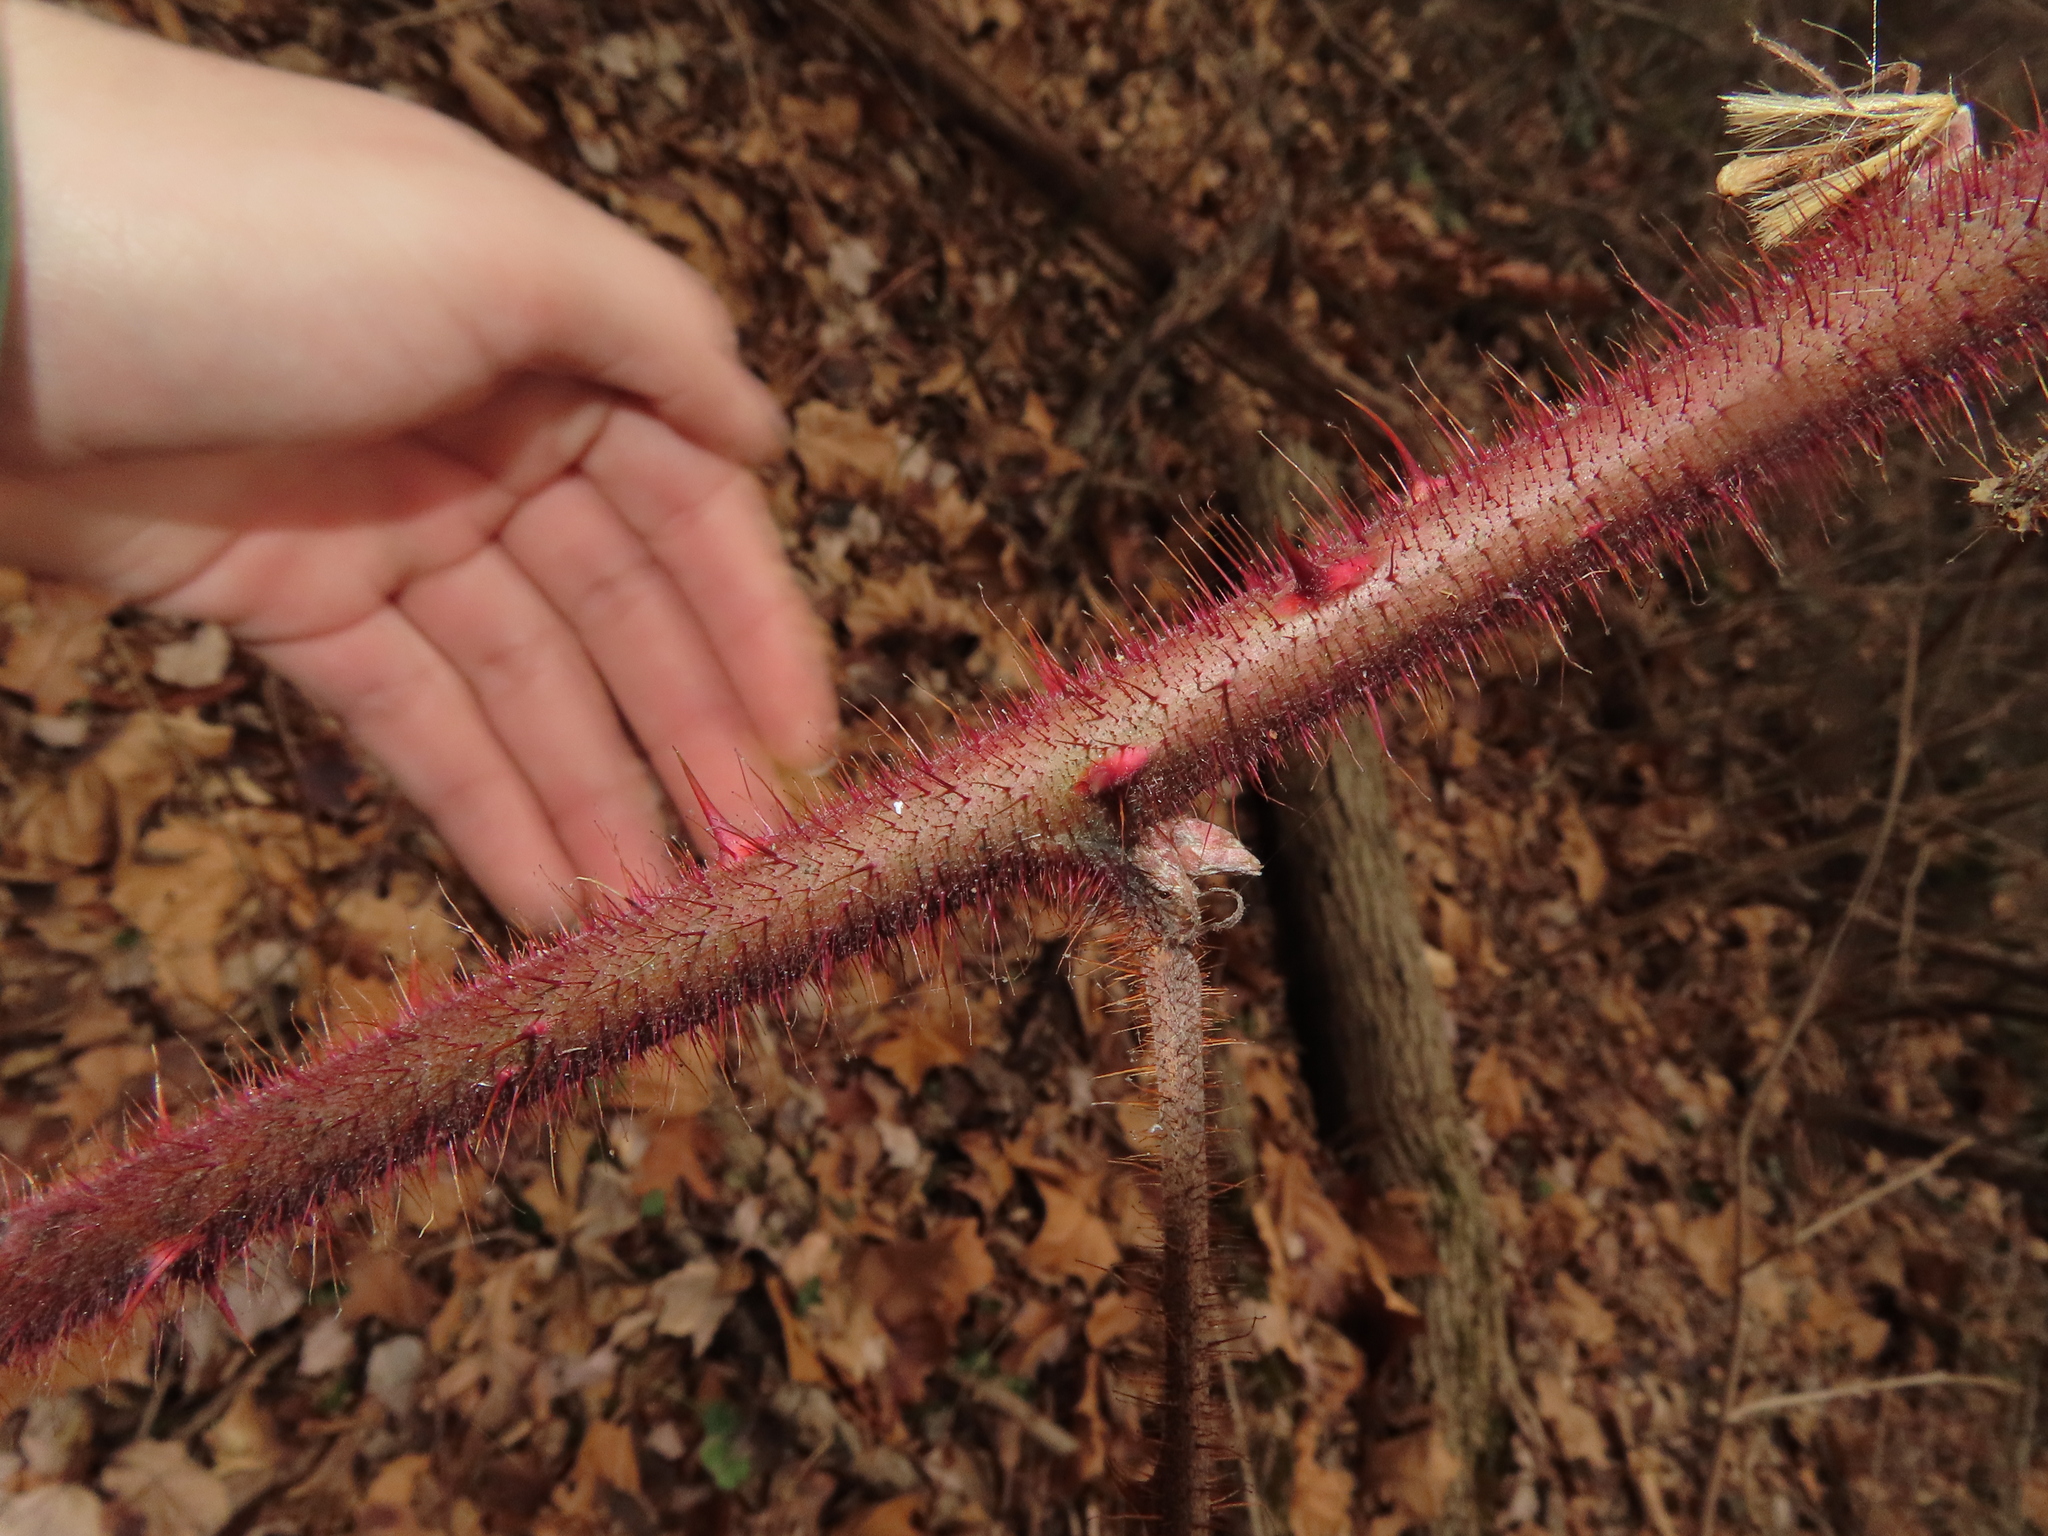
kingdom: Plantae
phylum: Tracheophyta
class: Magnoliopsida
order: Rosales
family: Rosaceae
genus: Rubus
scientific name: Rubus phoenicolasius
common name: Japanese wineberry
